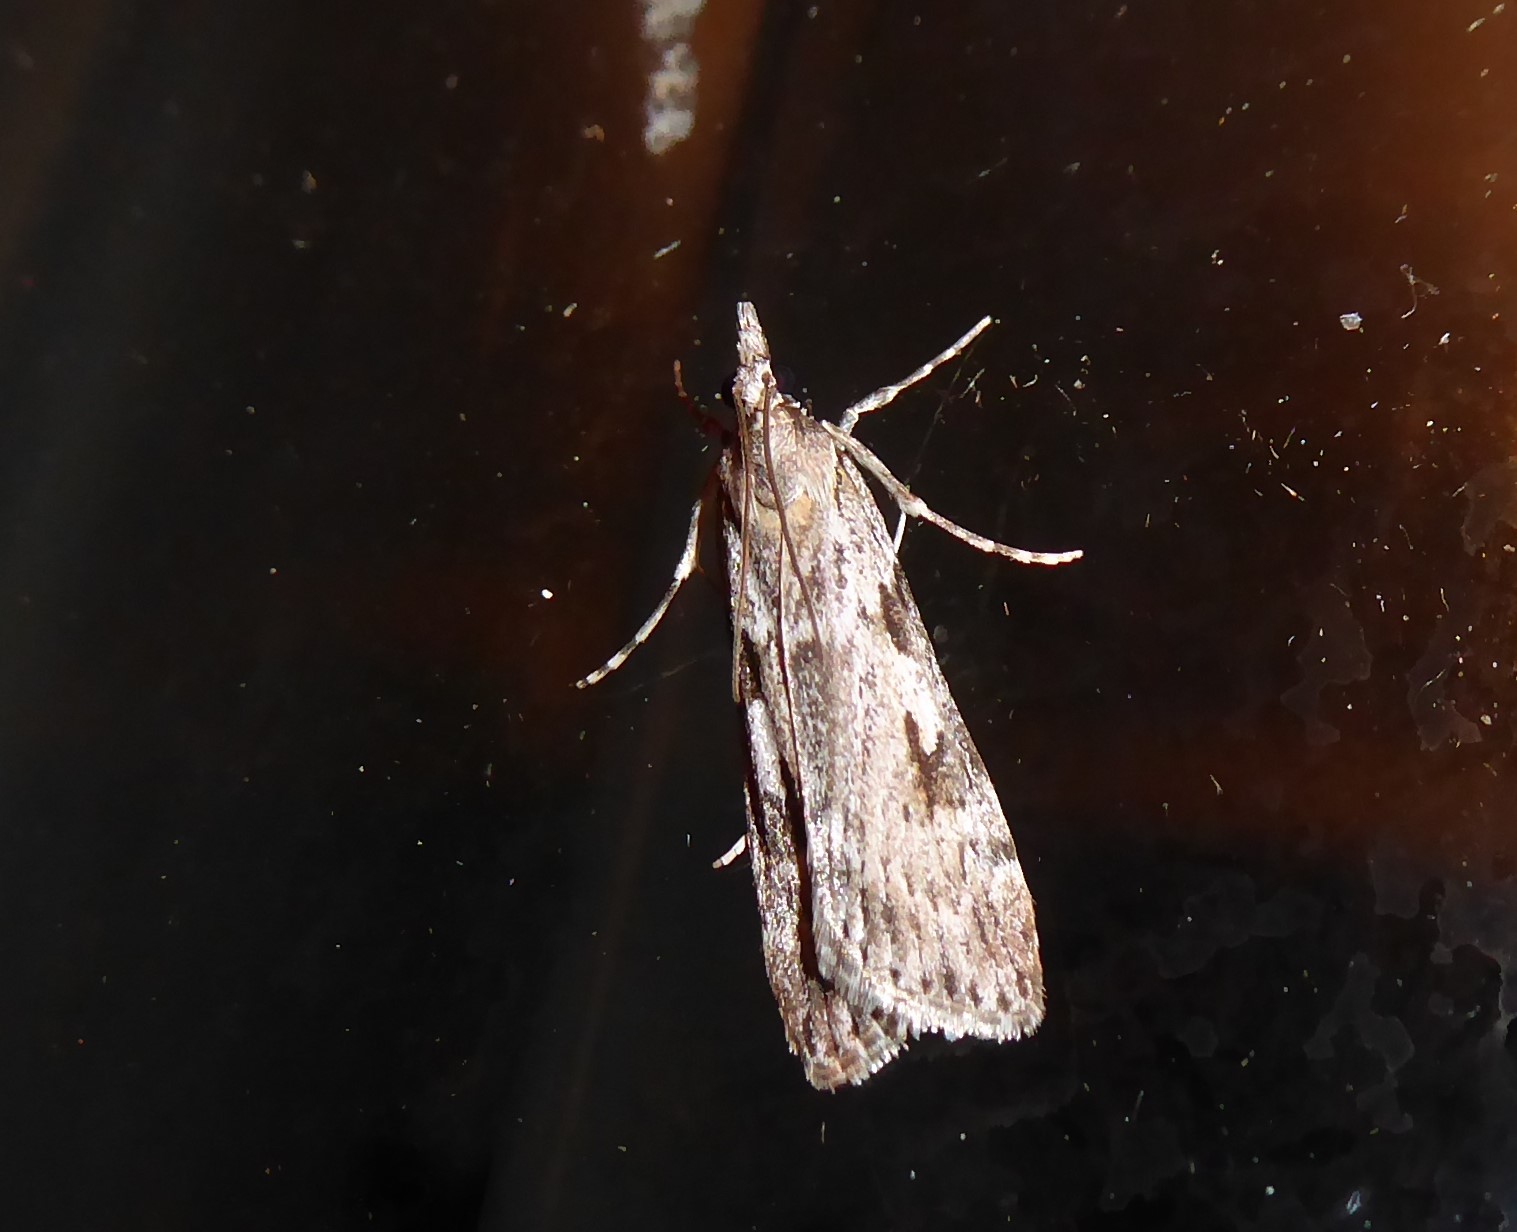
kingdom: Animalia
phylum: Arthropoda
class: Insecta
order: Lepidoptera
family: Crambidae
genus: Scoparia
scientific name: Scoparia halopis
